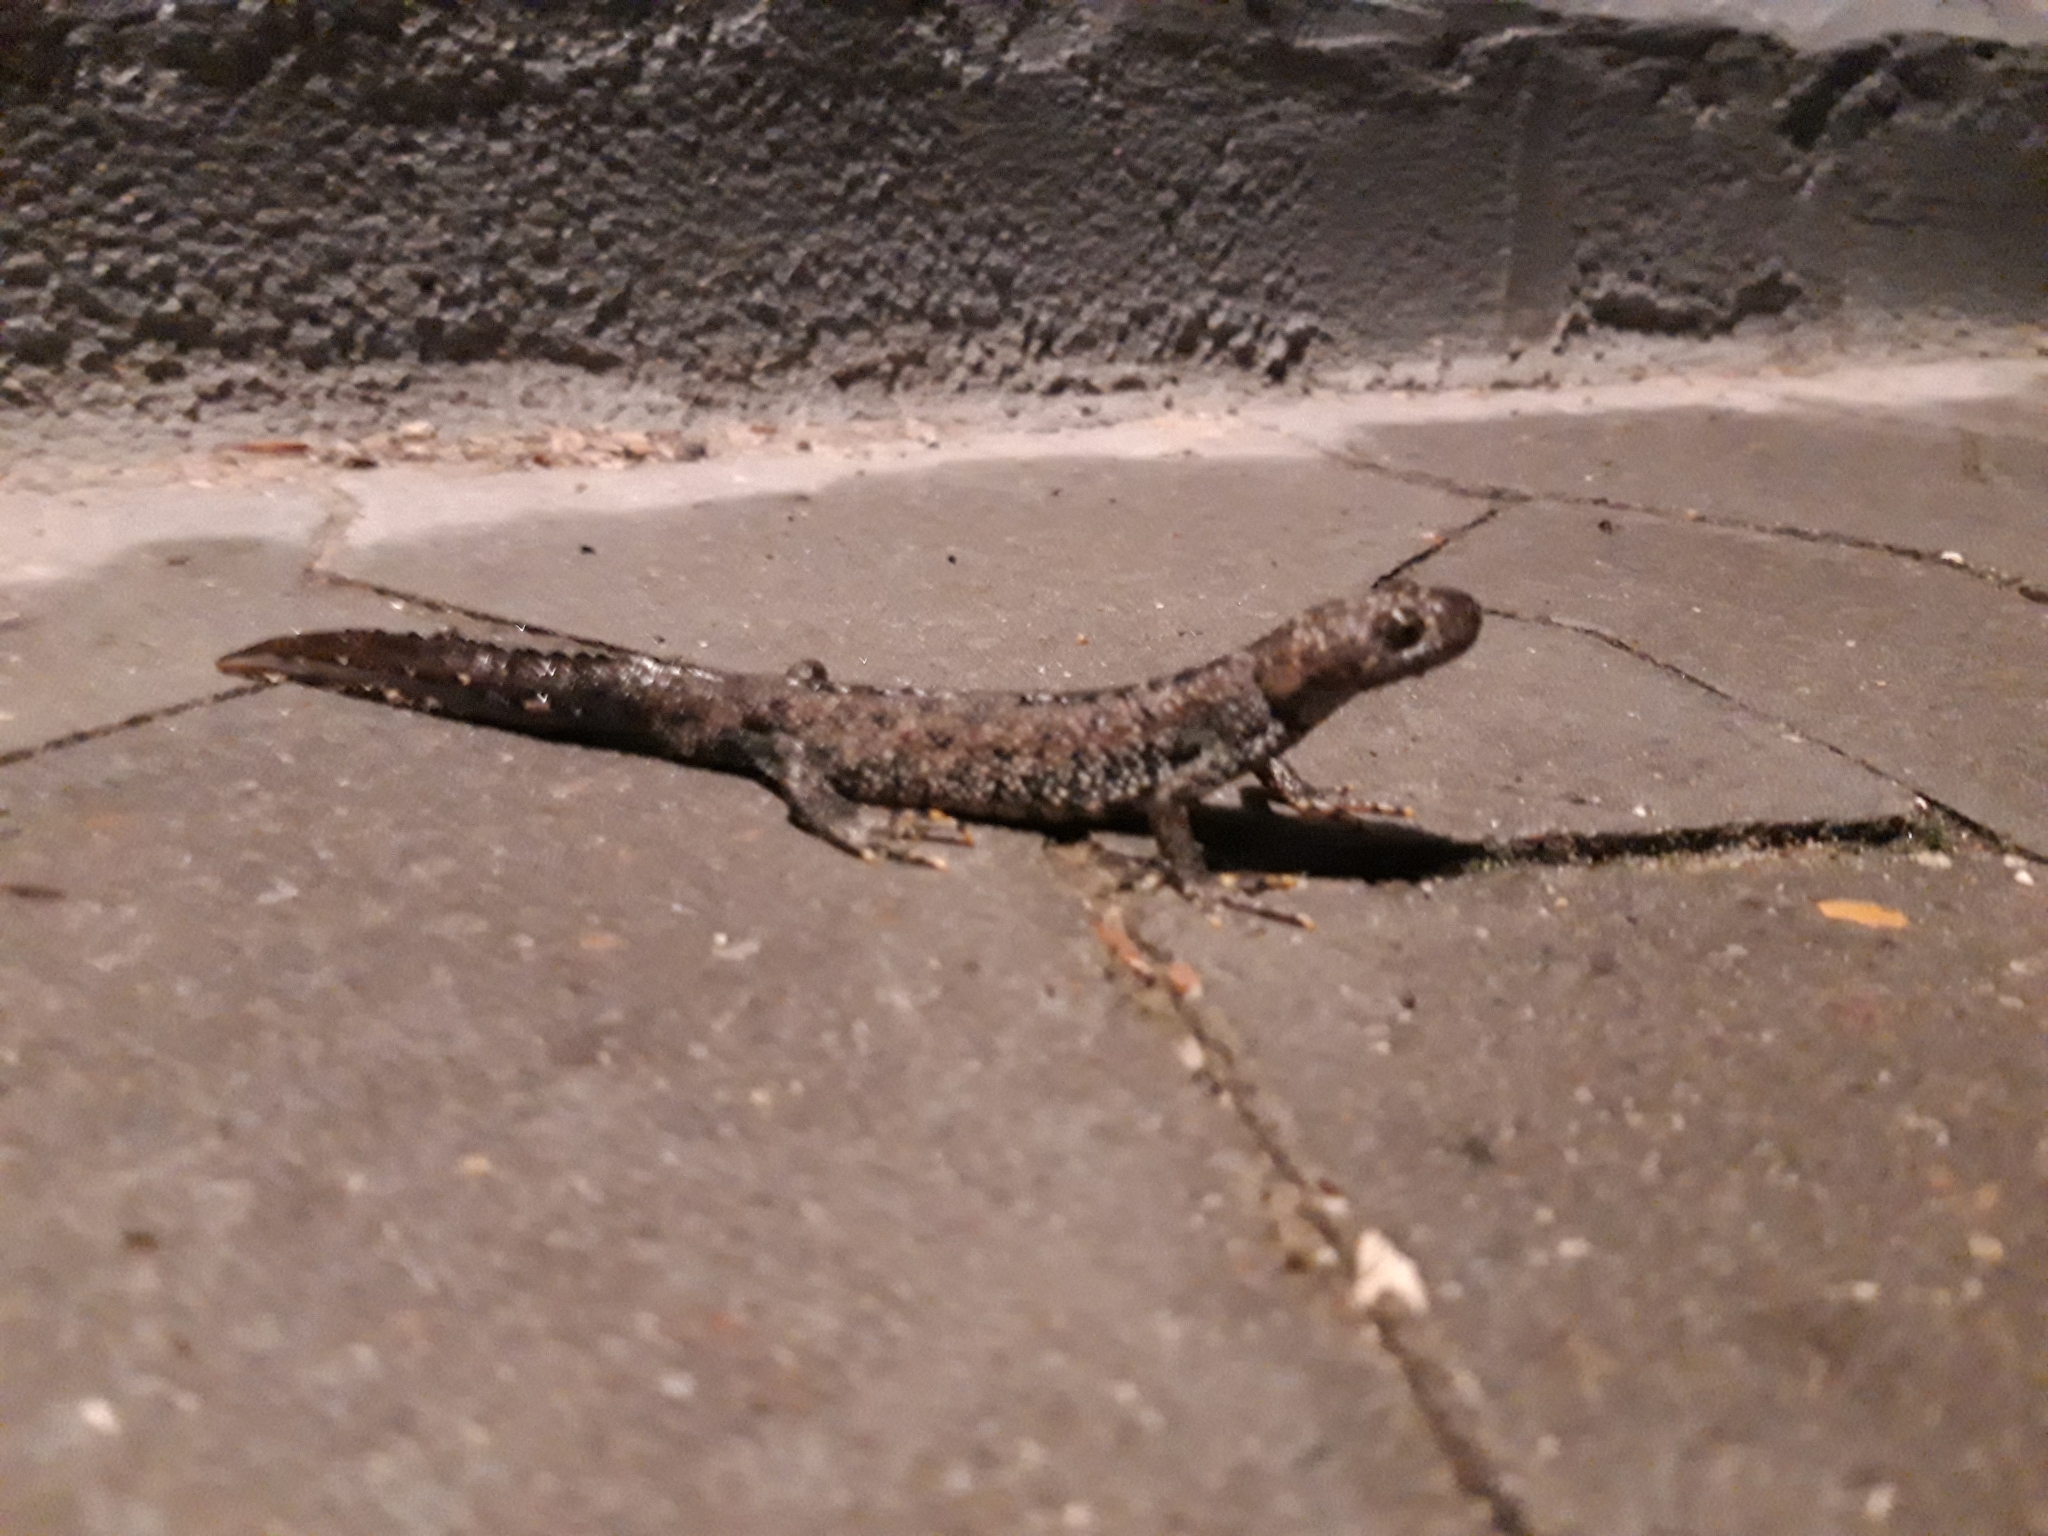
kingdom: Animalia
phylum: Chordata
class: Amphibia
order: Caudata
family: Salamandridae
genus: Triturus
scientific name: Triturus cristatus
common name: Crested newt
